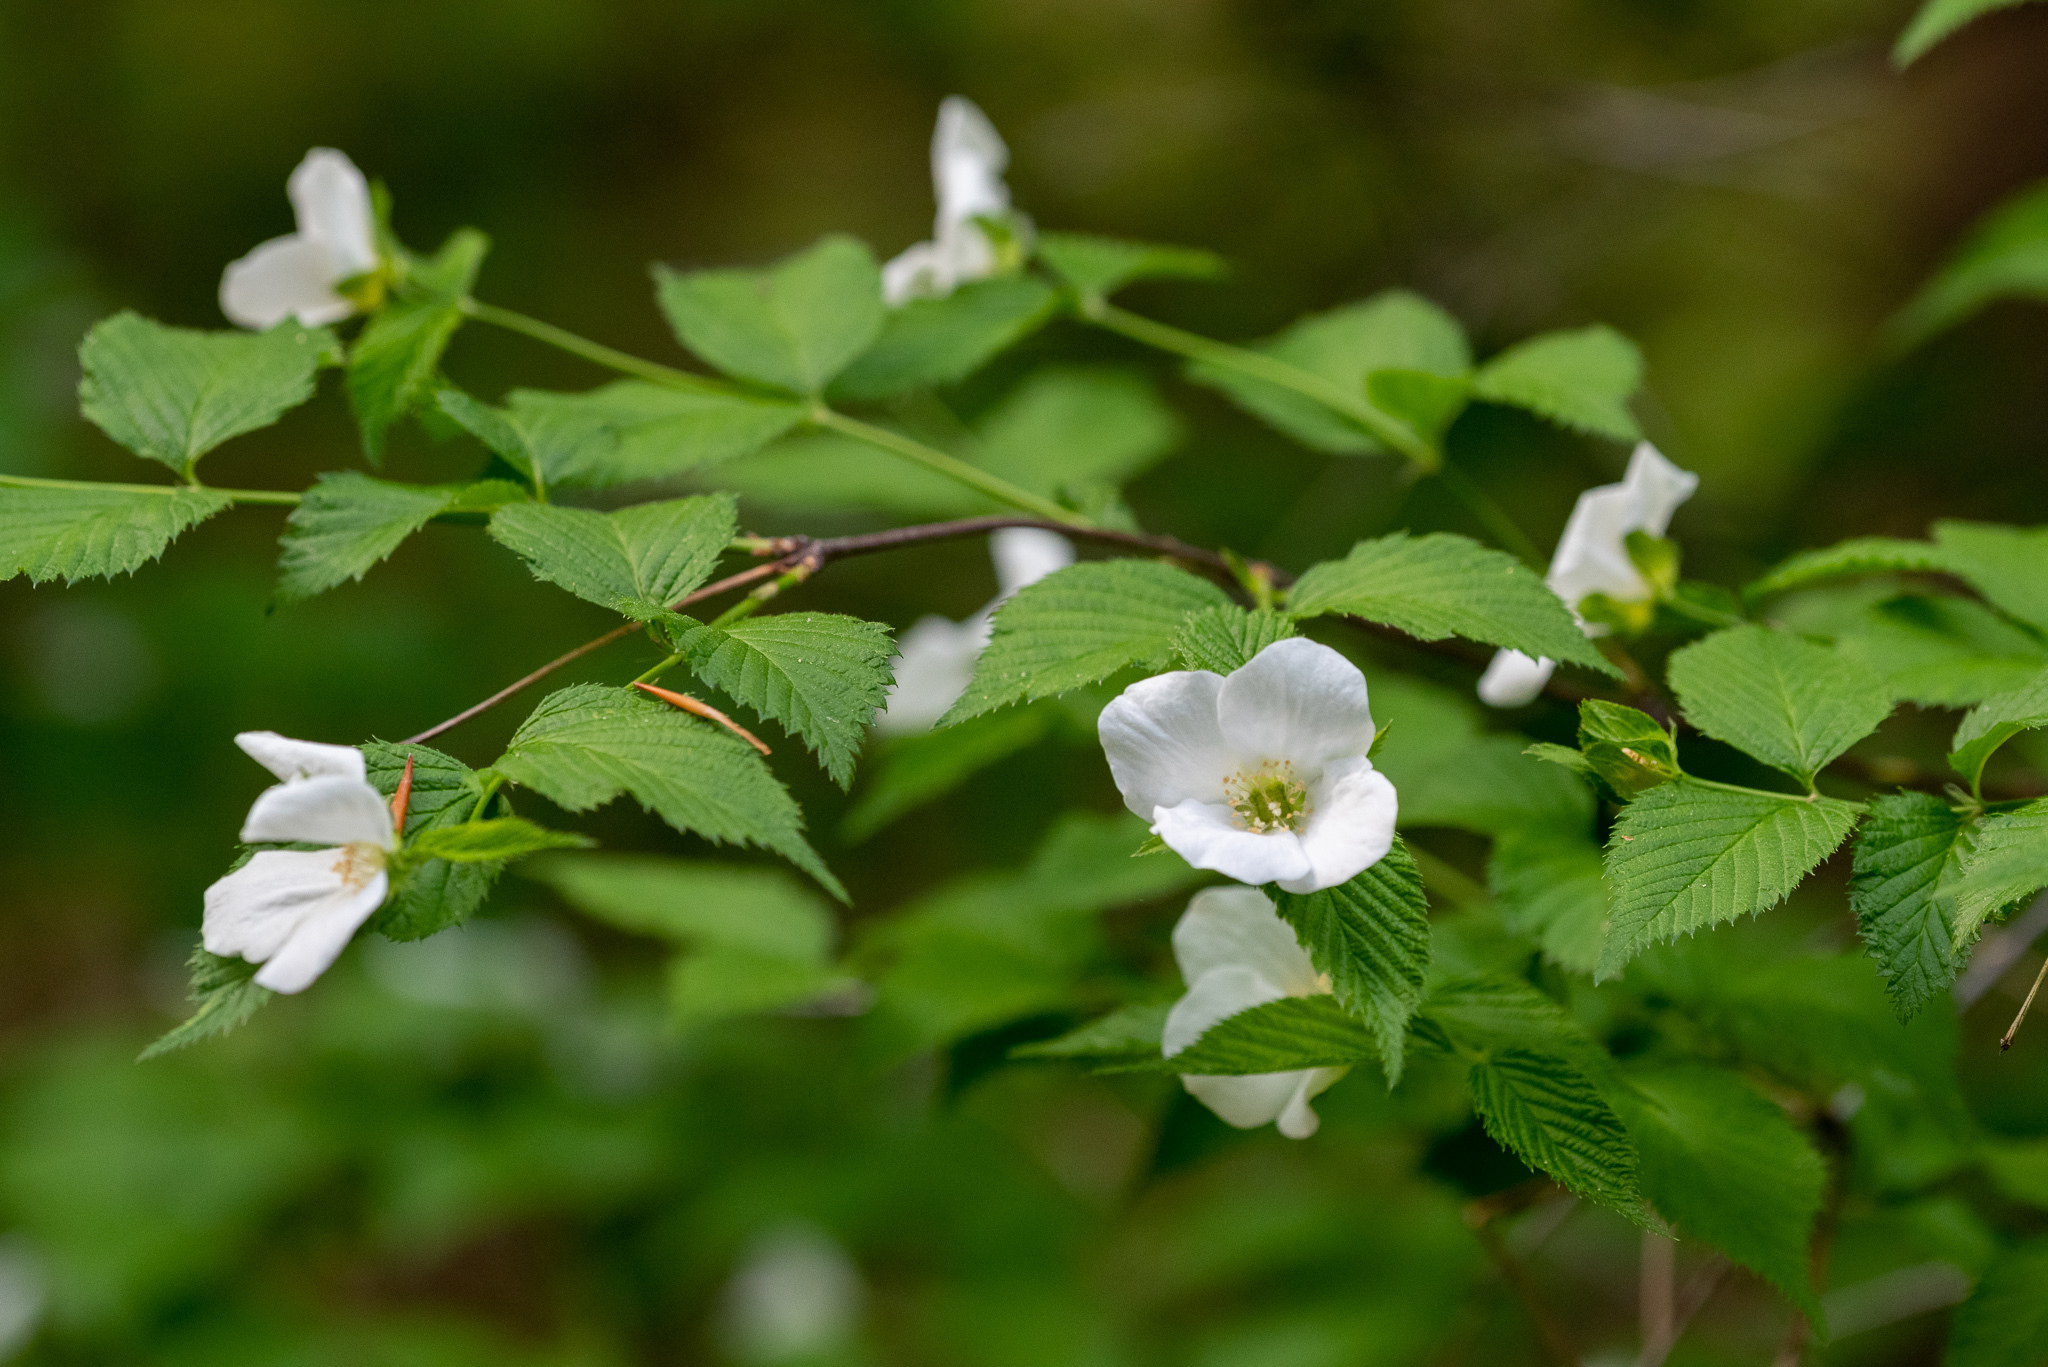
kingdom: Plantae
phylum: Tracheophyta
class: Magnoliopsida
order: Rosales
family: Rosaceae
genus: Rhodotypos
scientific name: Rhodotypos scandens
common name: Jetbead
